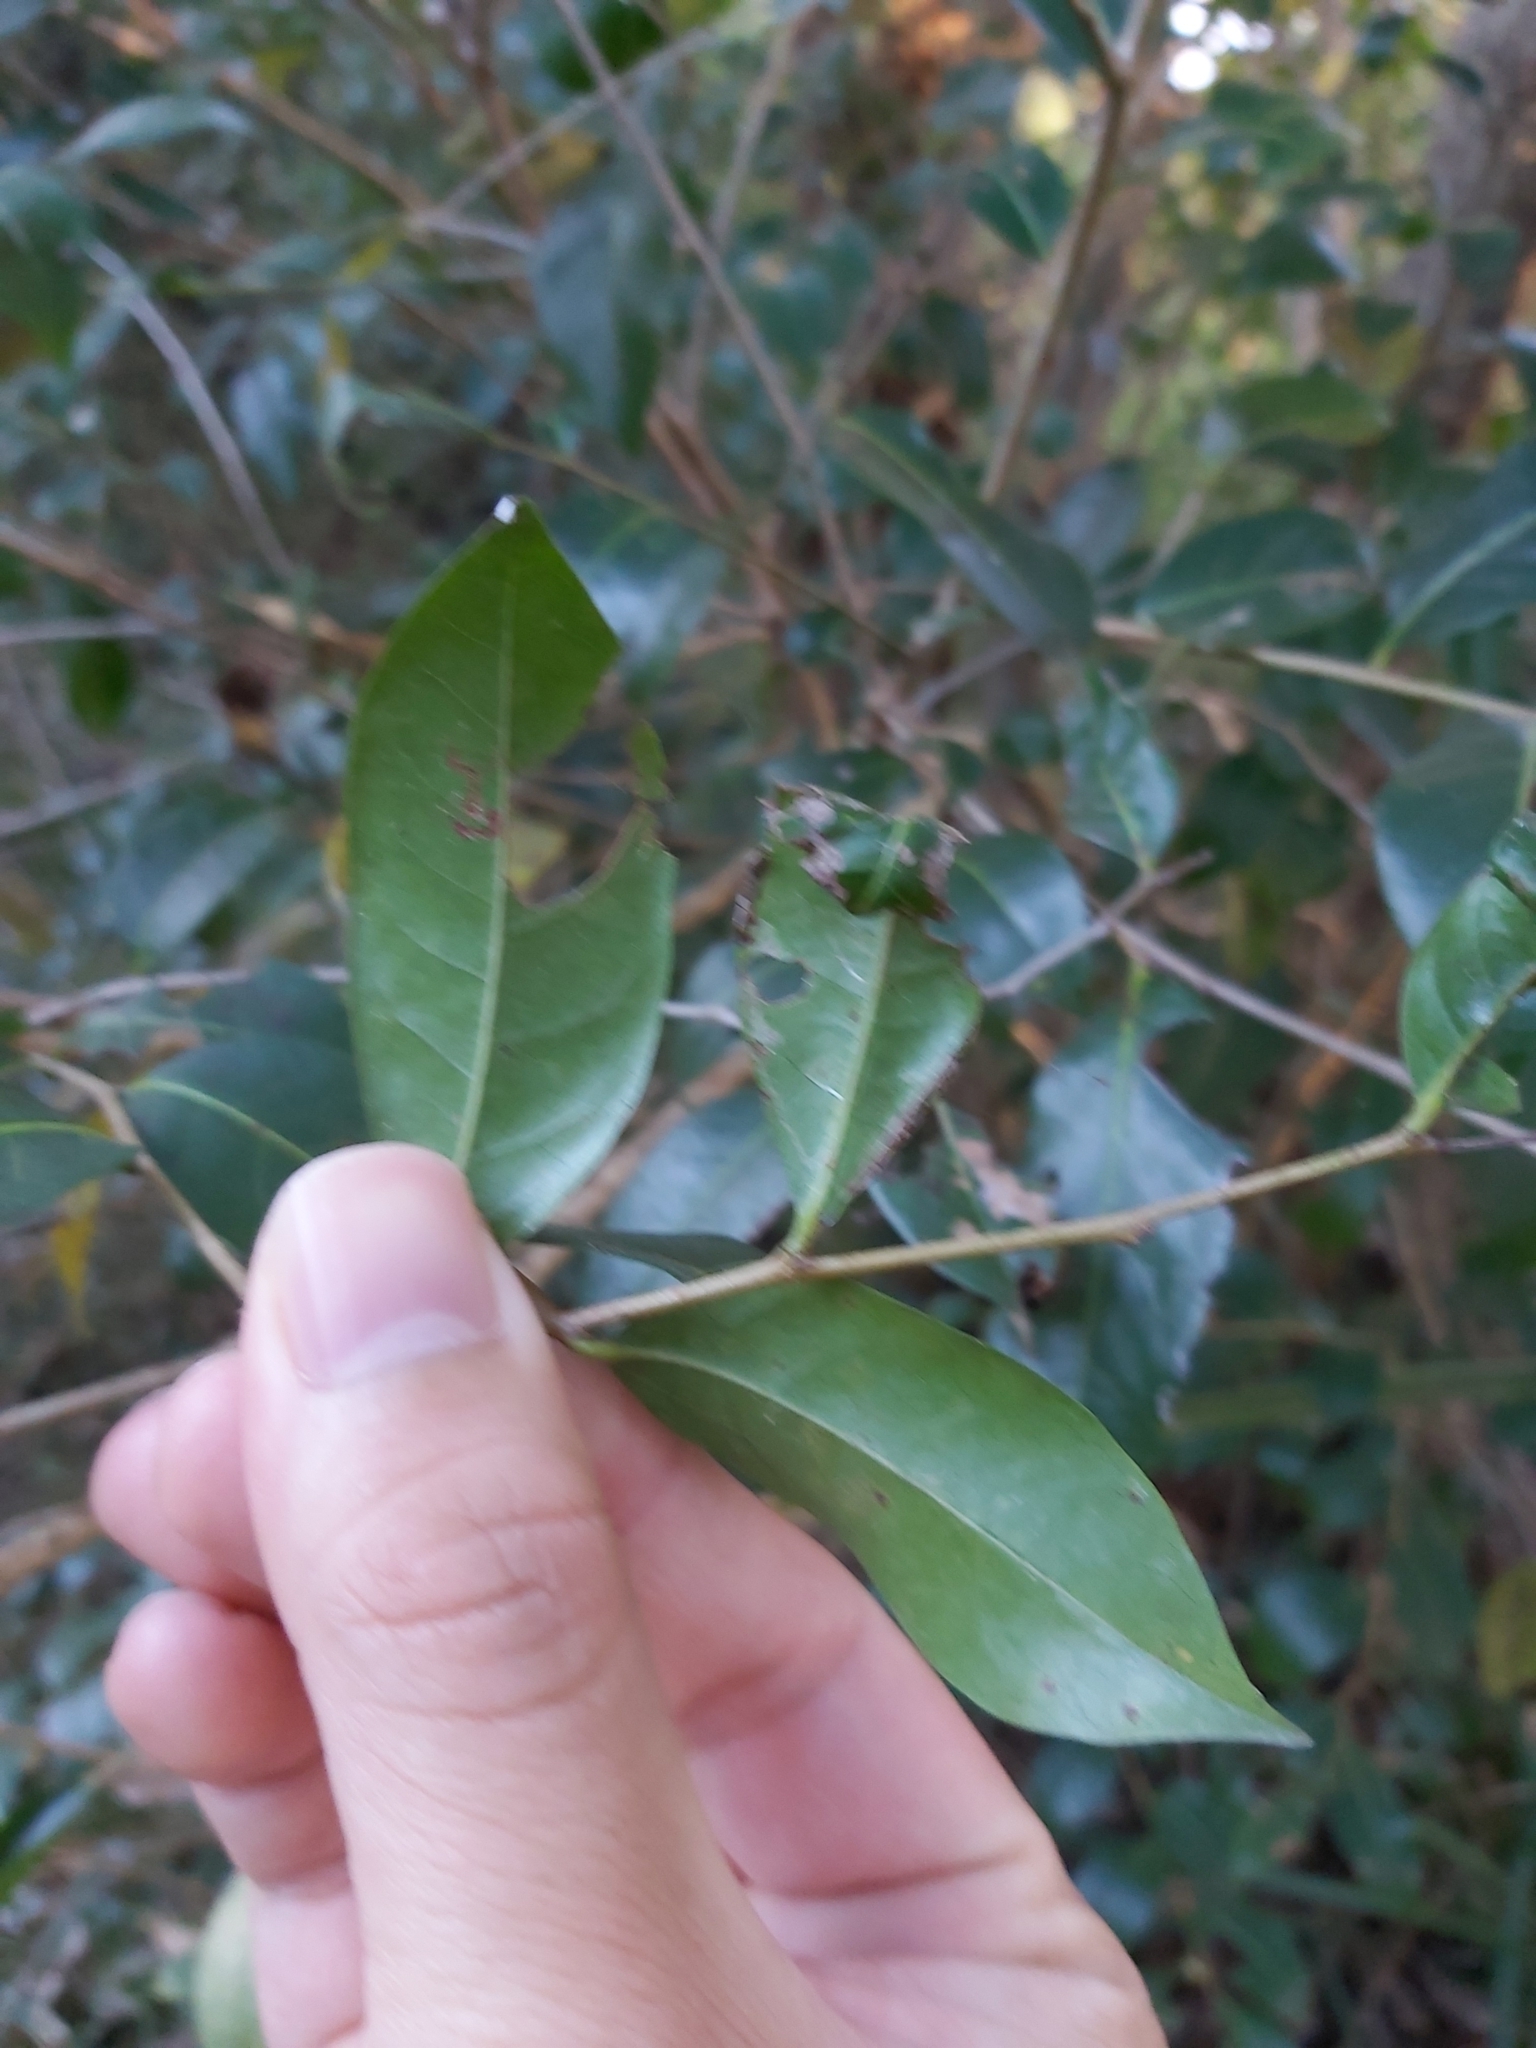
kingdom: Plantae
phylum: Tracheophyta
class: Magnoliopsida
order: Malpighiales
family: Phyllanthaceae
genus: Glochidion
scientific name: Glochidion ferdinandi
